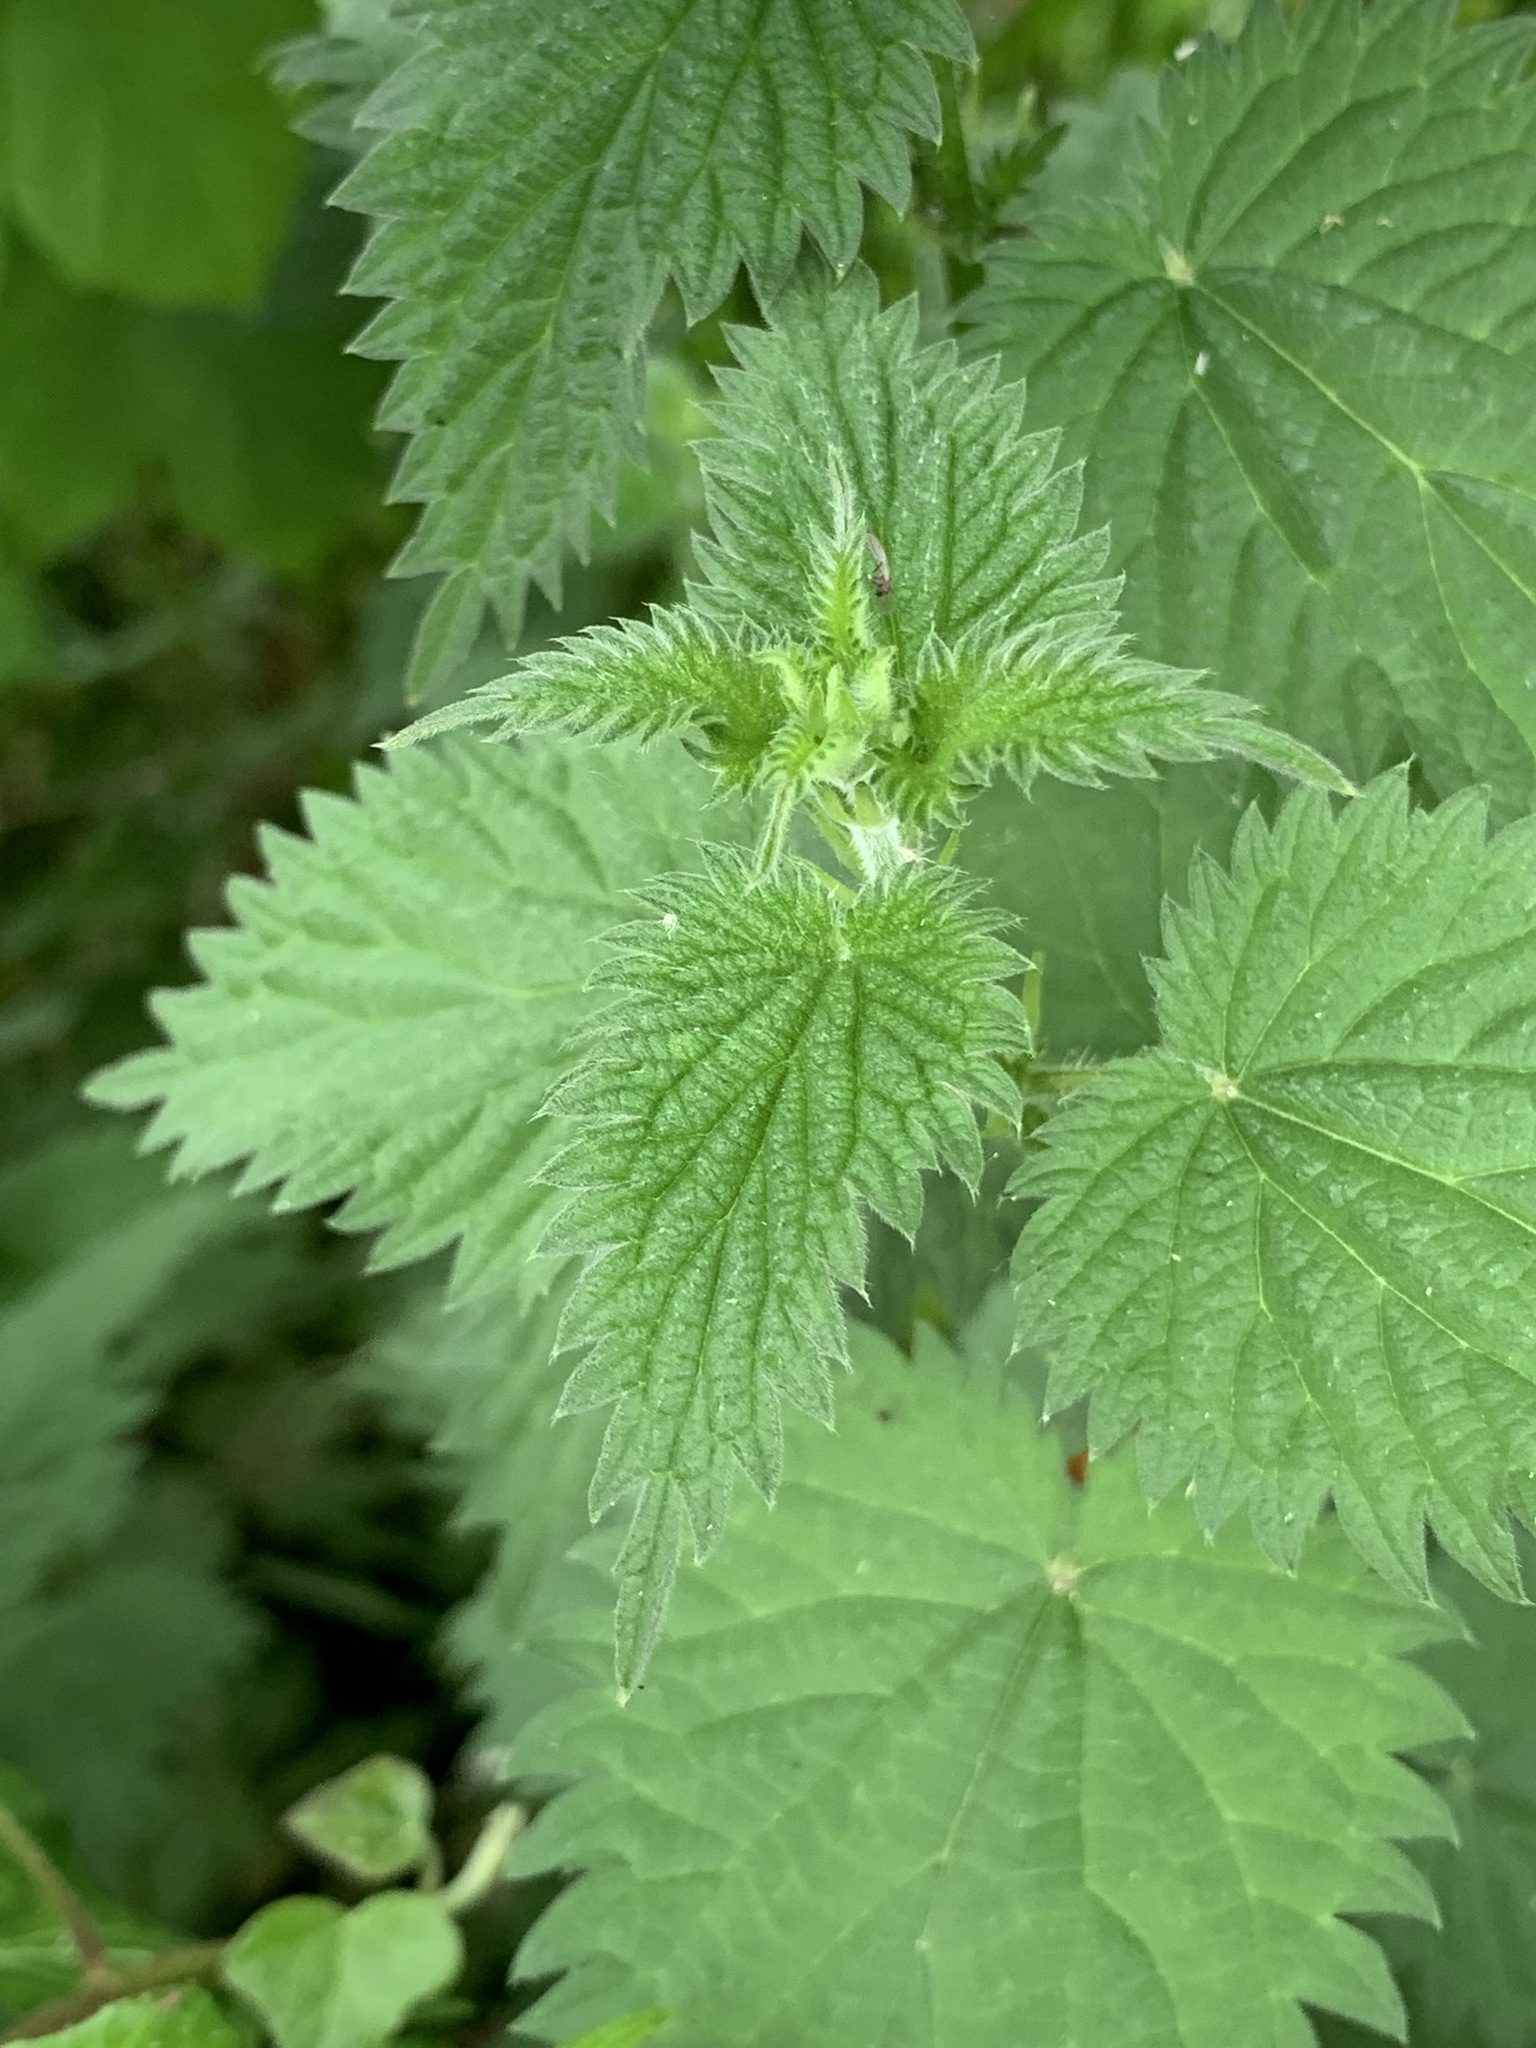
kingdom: Plantae
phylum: Tracheophyta
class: Magnoliopsida
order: Rosales
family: Urticaceae
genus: Urtica
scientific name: Urtica dioica
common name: Common nettle
